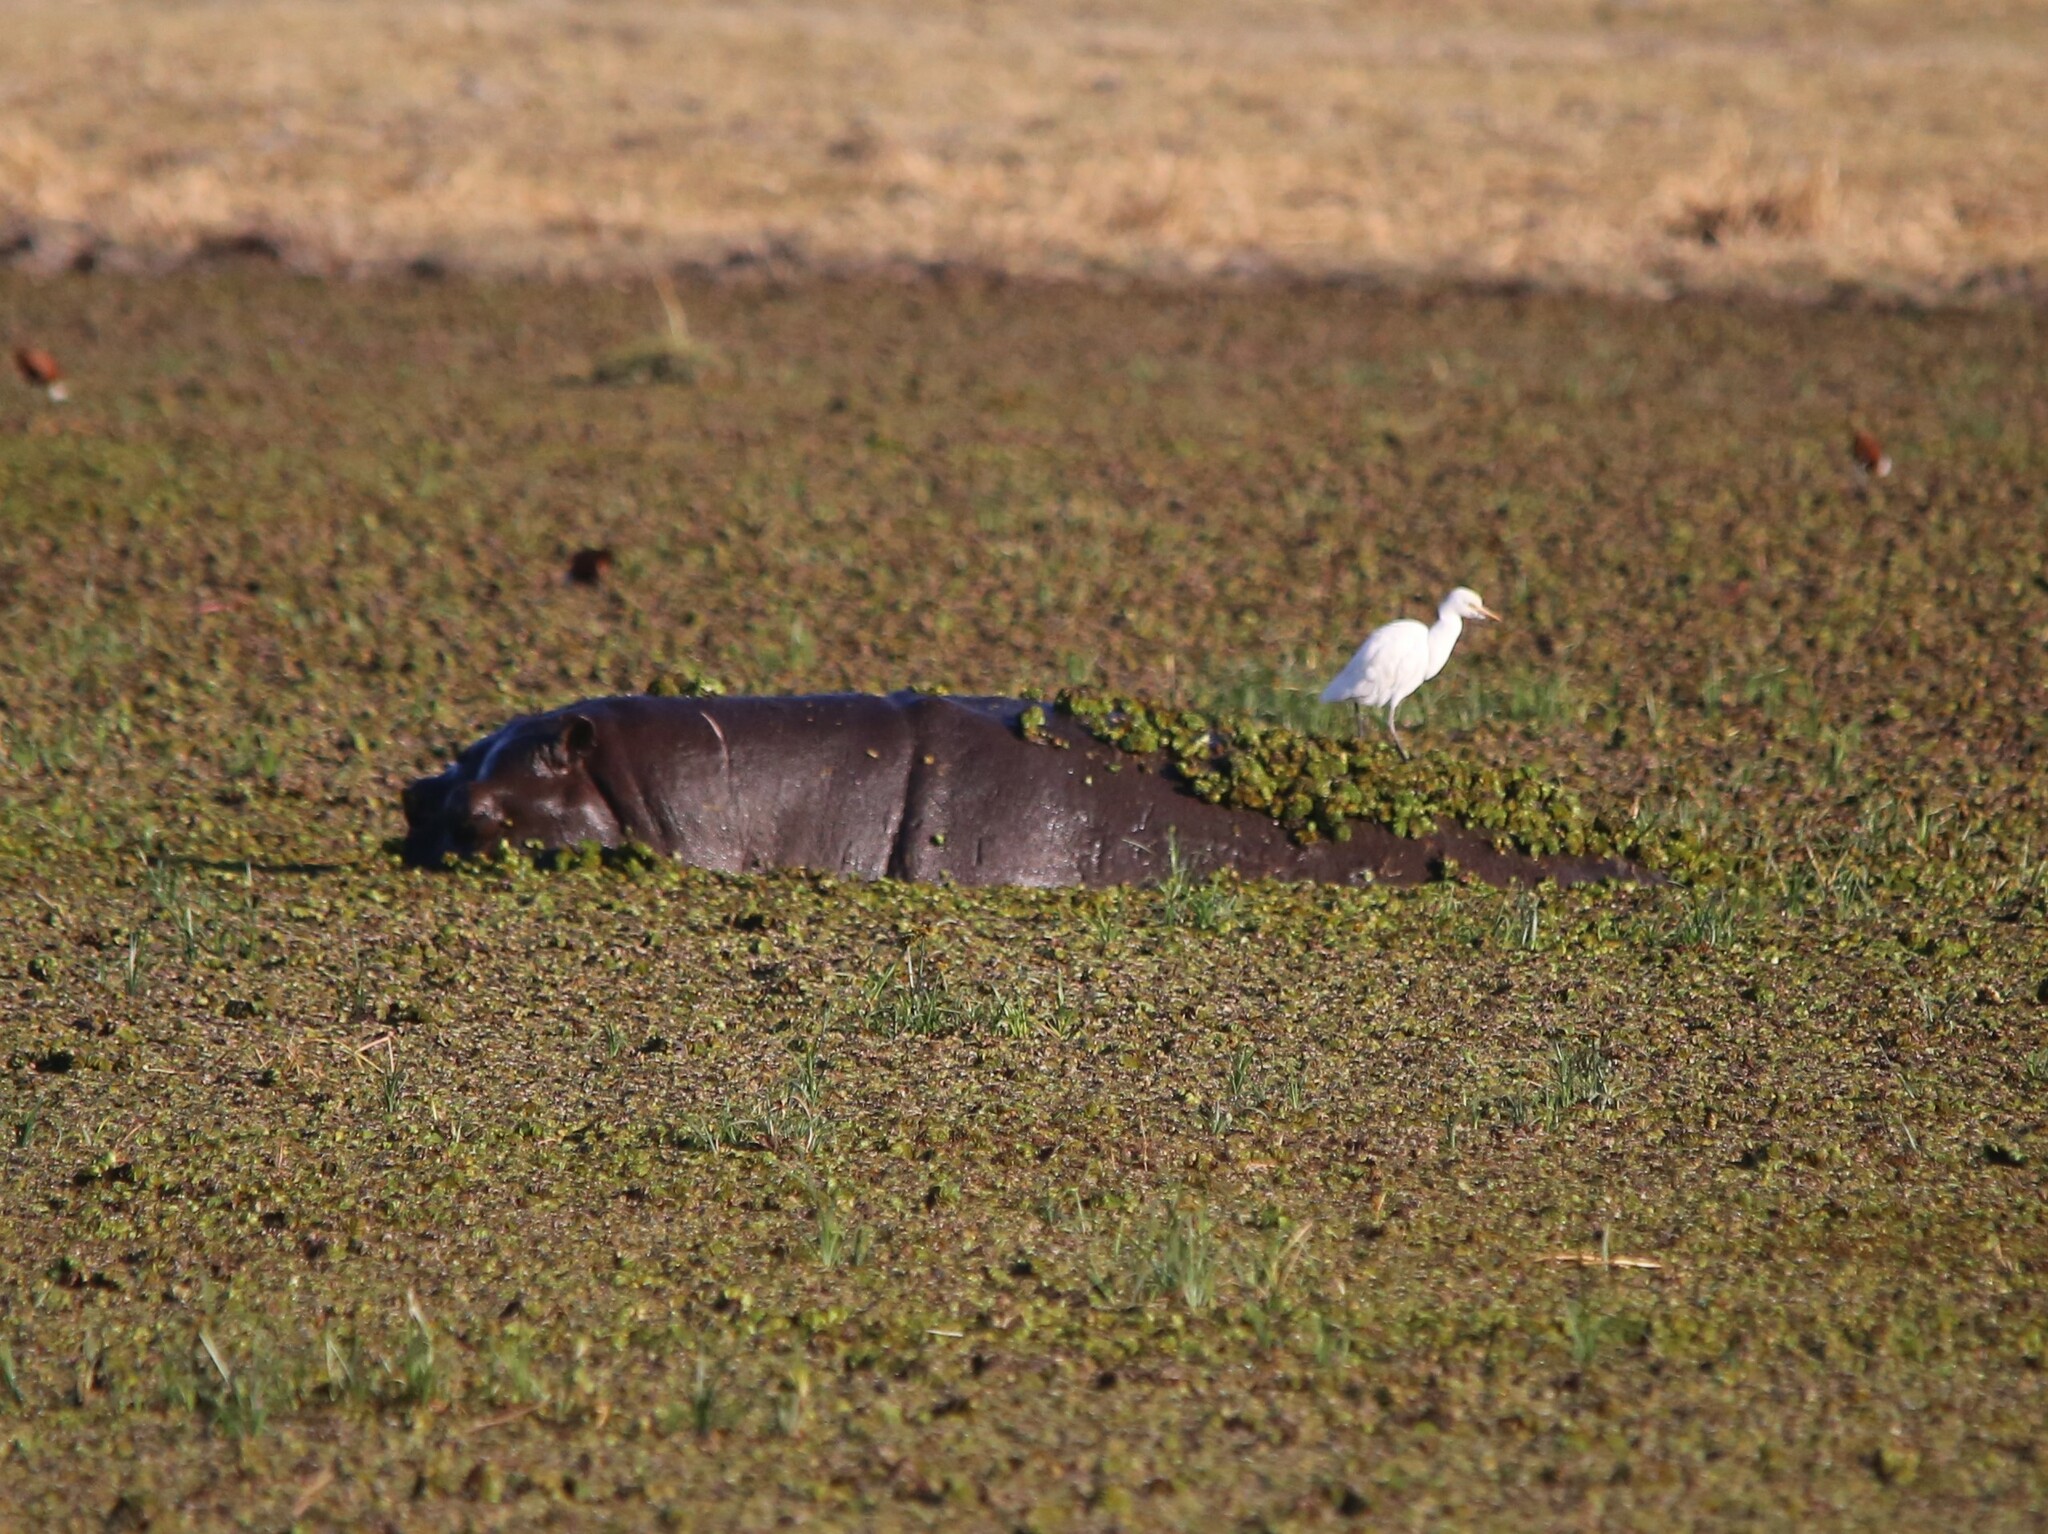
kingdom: Animalia
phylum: Chordata
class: Mammalia
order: Artiodactyla
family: Hippopotamidae
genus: Hippopotamus
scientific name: Hippopotamus amphibius
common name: Common hippopotamus
